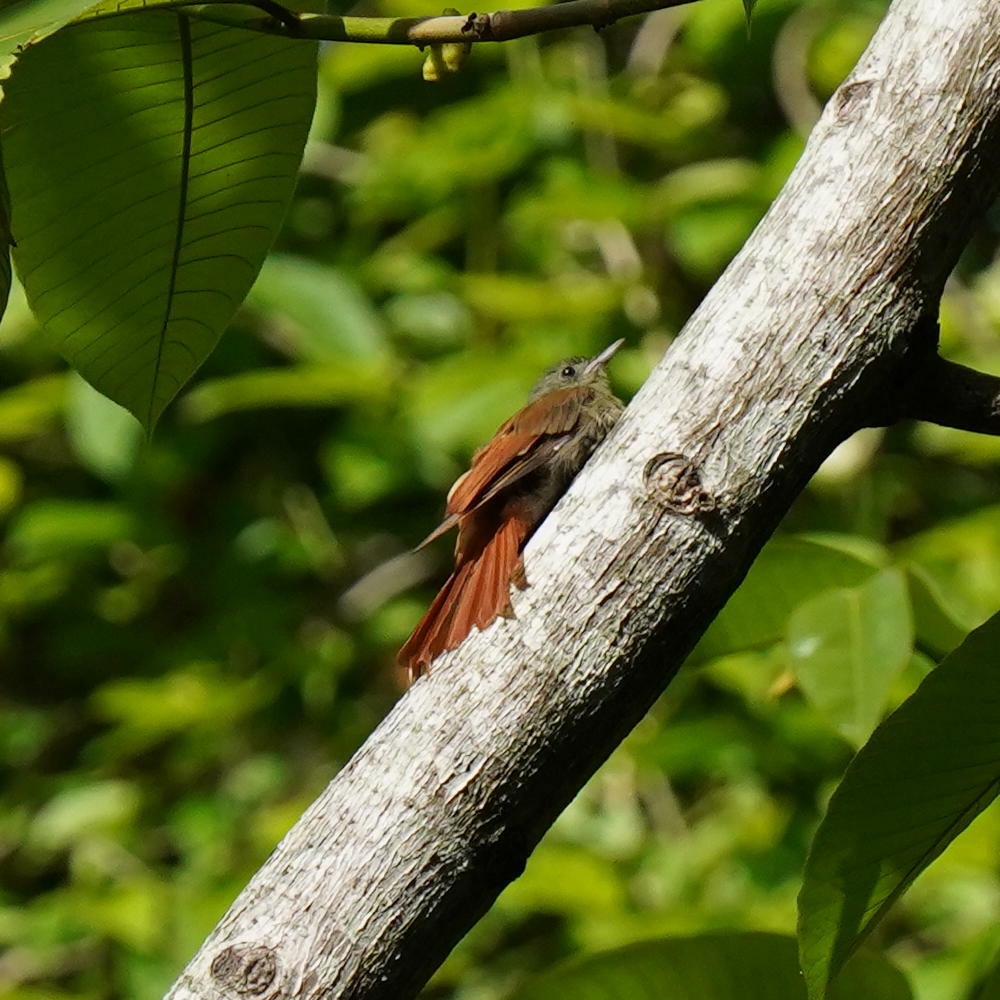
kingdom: Animalia
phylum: Chordata
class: Aves
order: Passeriformes
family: Furnariidae
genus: Sittasomus
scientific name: Sittasomus griseicapillus
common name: Olivaceous woodcreeper
